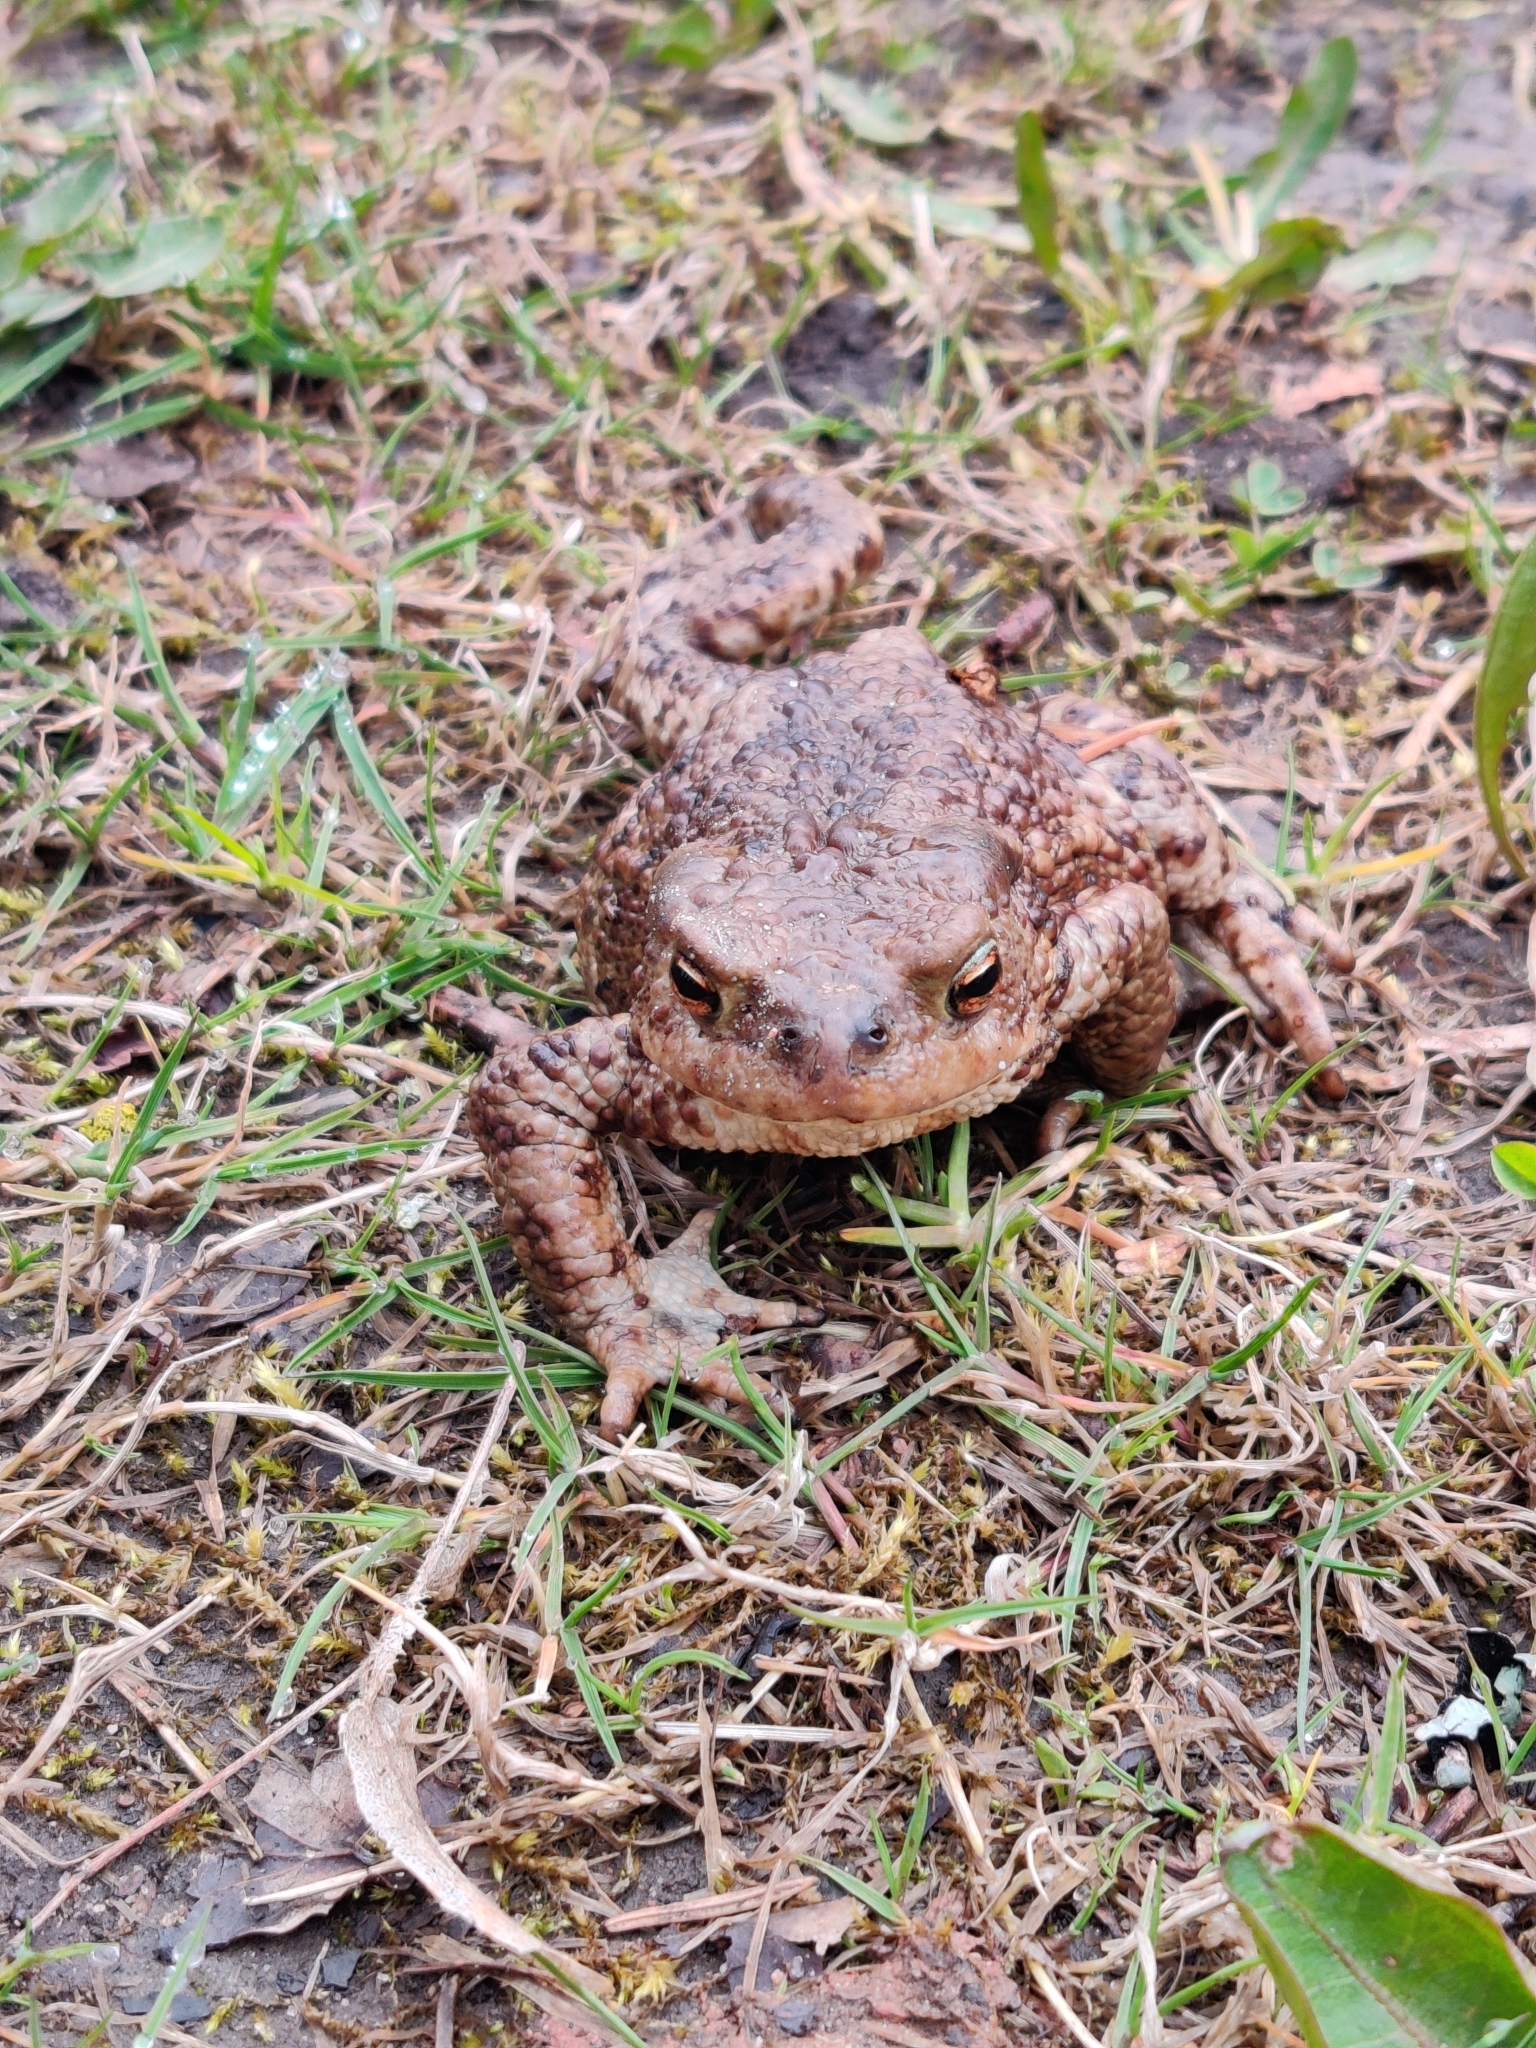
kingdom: Animalia
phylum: Chordata
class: Amphibia
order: Anura
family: Bufonidae
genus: Bufo
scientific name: Bufo bufo
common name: Common toad
